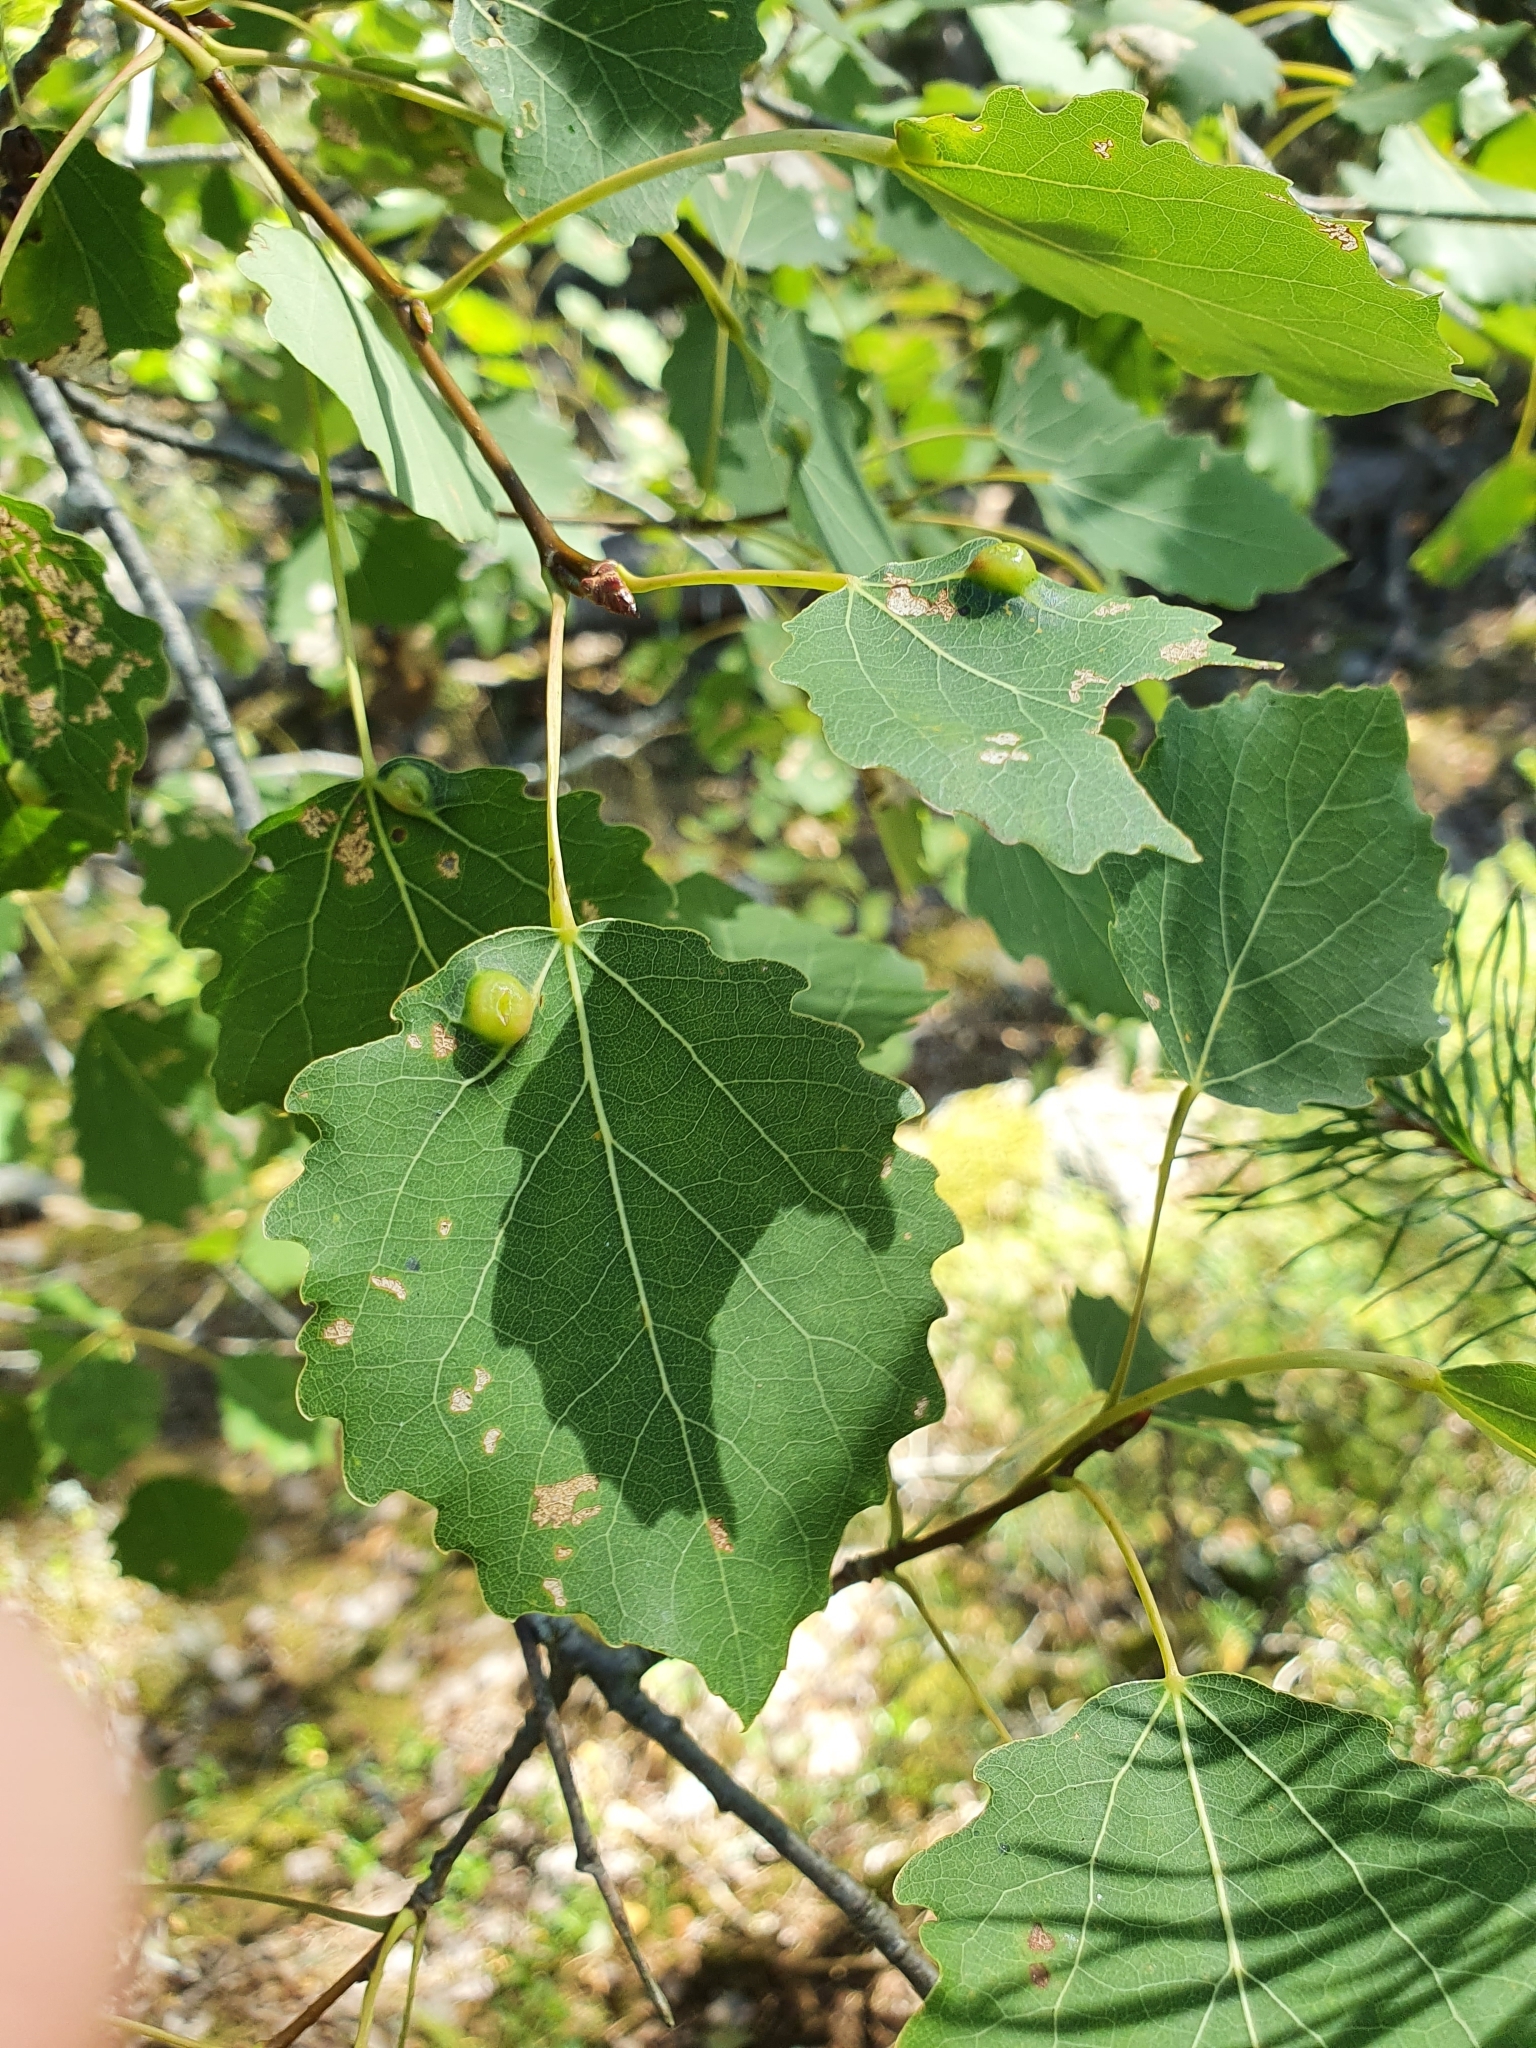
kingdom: Animalia
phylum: Arthropoda
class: Insecta
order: Diptera
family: Cecidomyiidae
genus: Harmandiola
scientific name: Harmandiola tremulae
